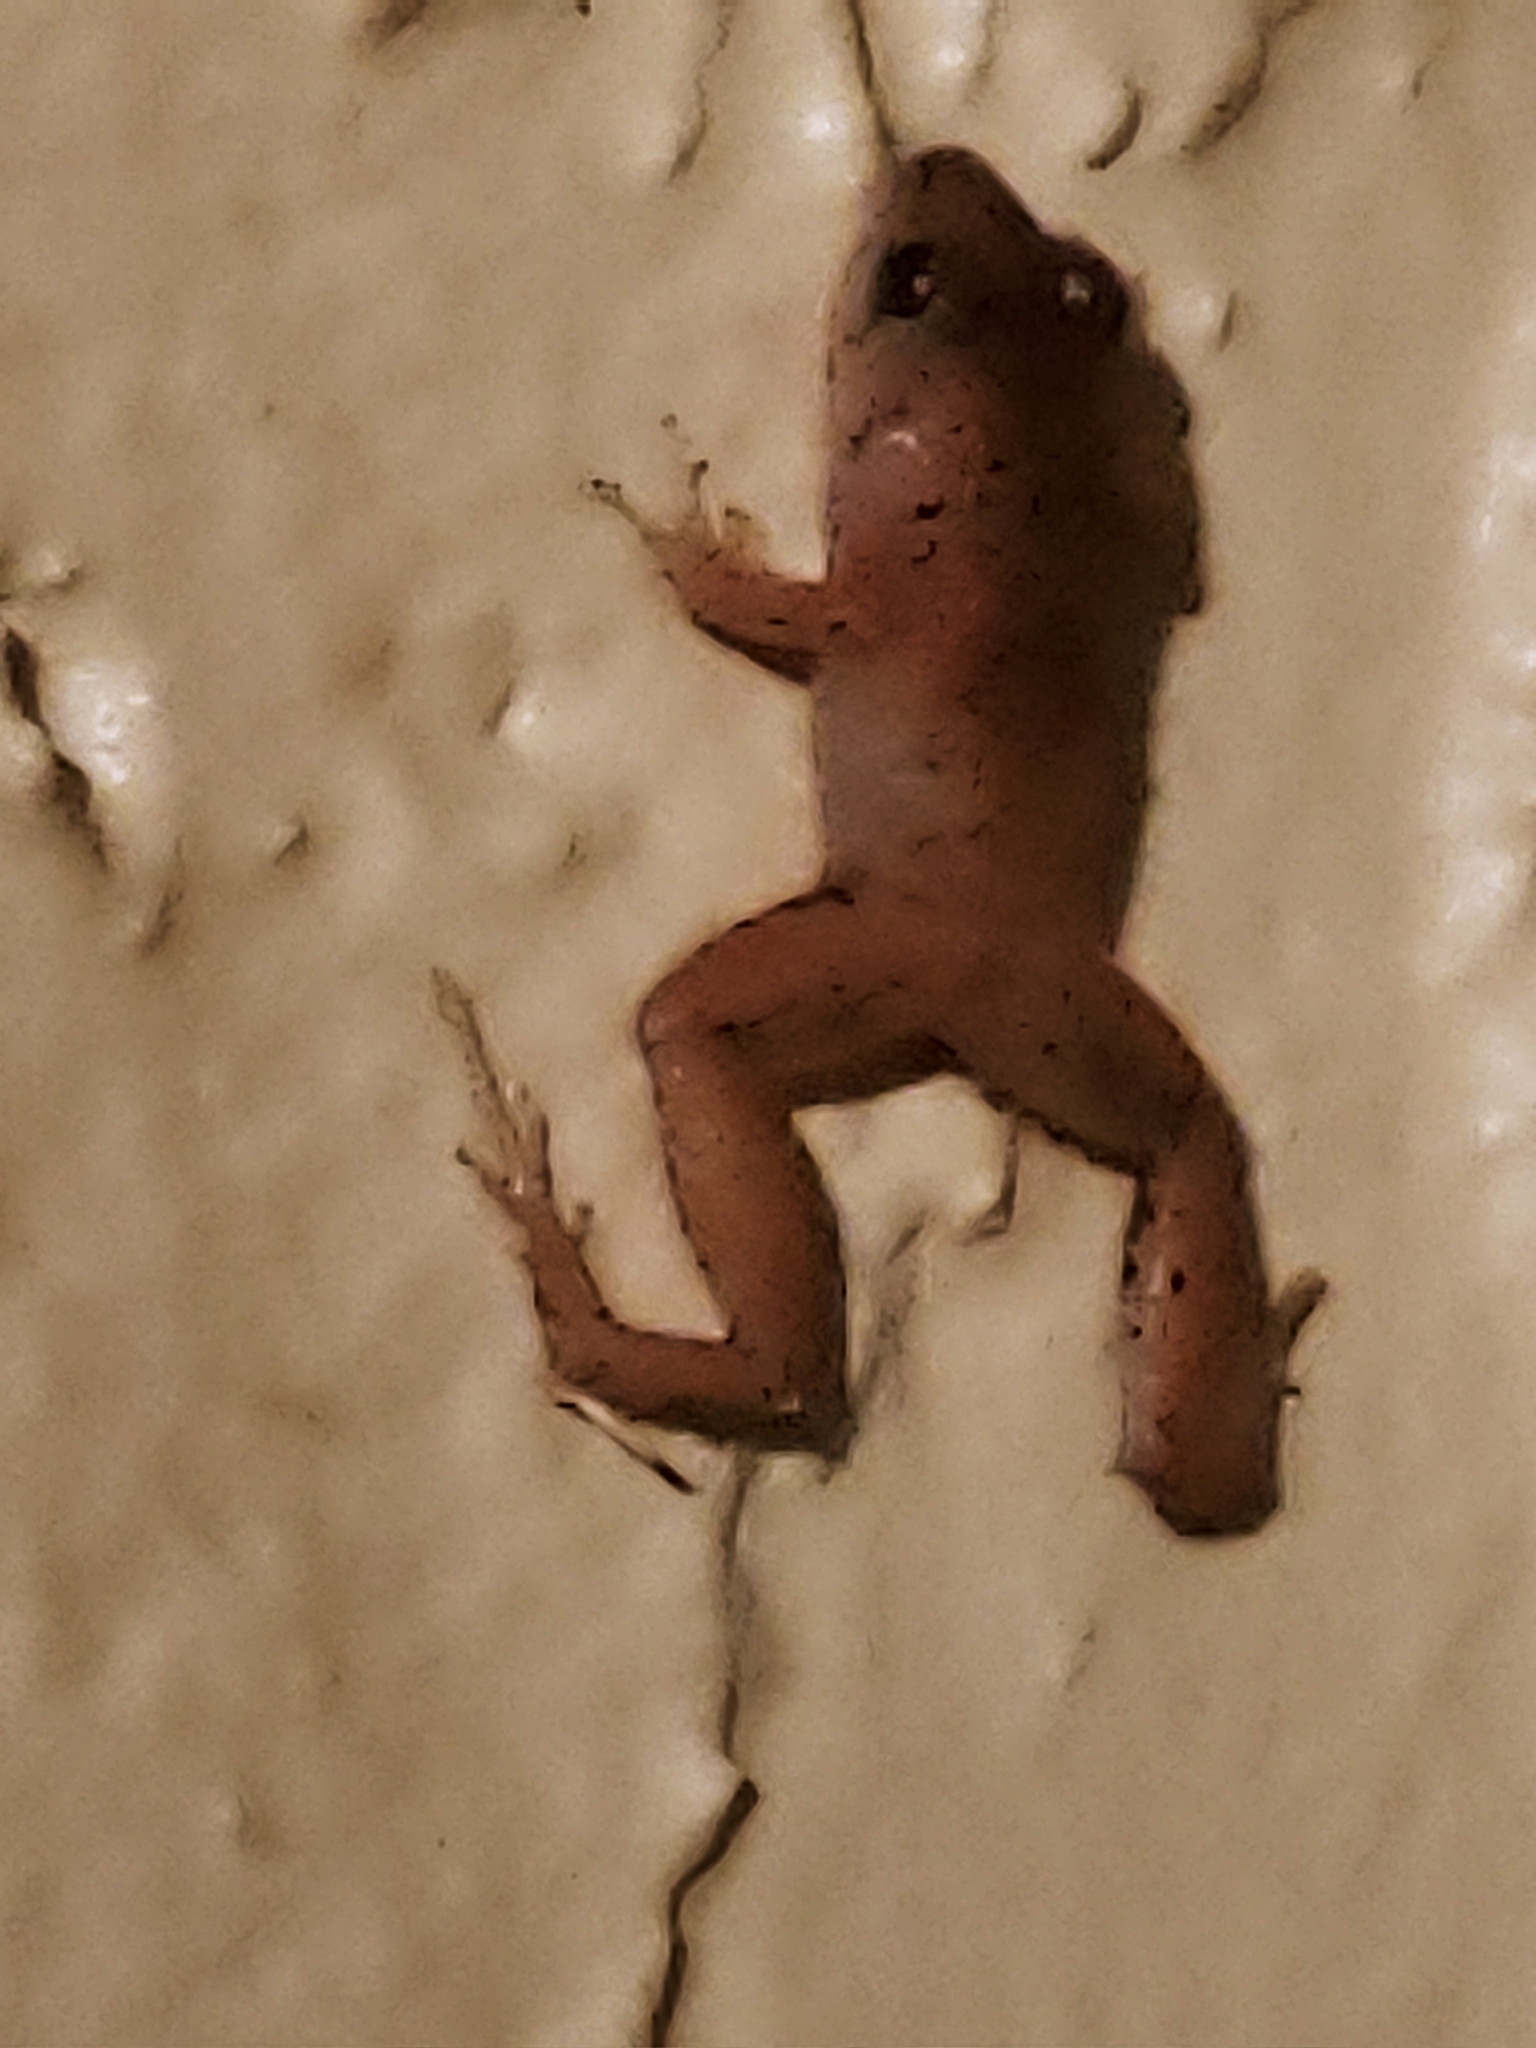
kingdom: Animalia
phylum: Chordata
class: Amphibia
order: Anura
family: Eleutherodactylidae
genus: Eleutherodactylus
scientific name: Eleutherodactylus planirostris
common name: Greenhouse frog
